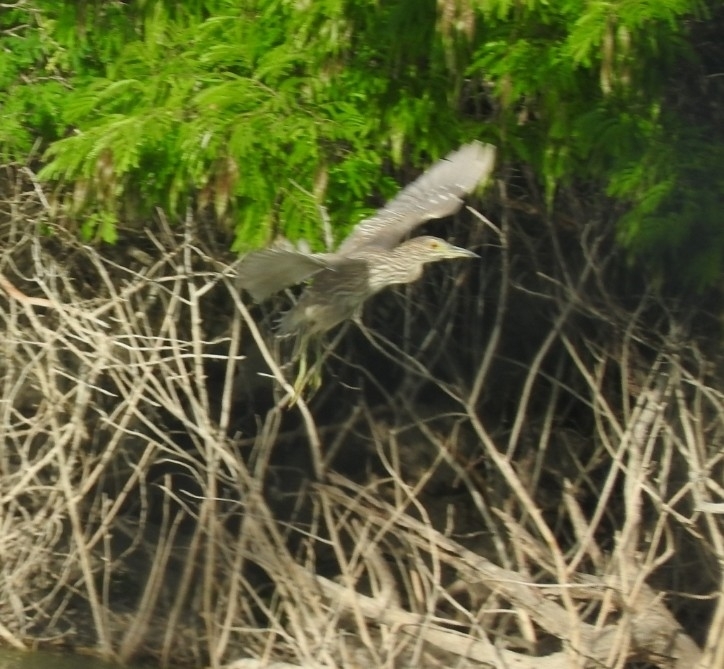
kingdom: Animalia
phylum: Chordata
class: Aves
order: Pelecaniformes
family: Ardeidae
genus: Nycticorax
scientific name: Nycticorax nycticorax
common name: Black-crowned night heron
